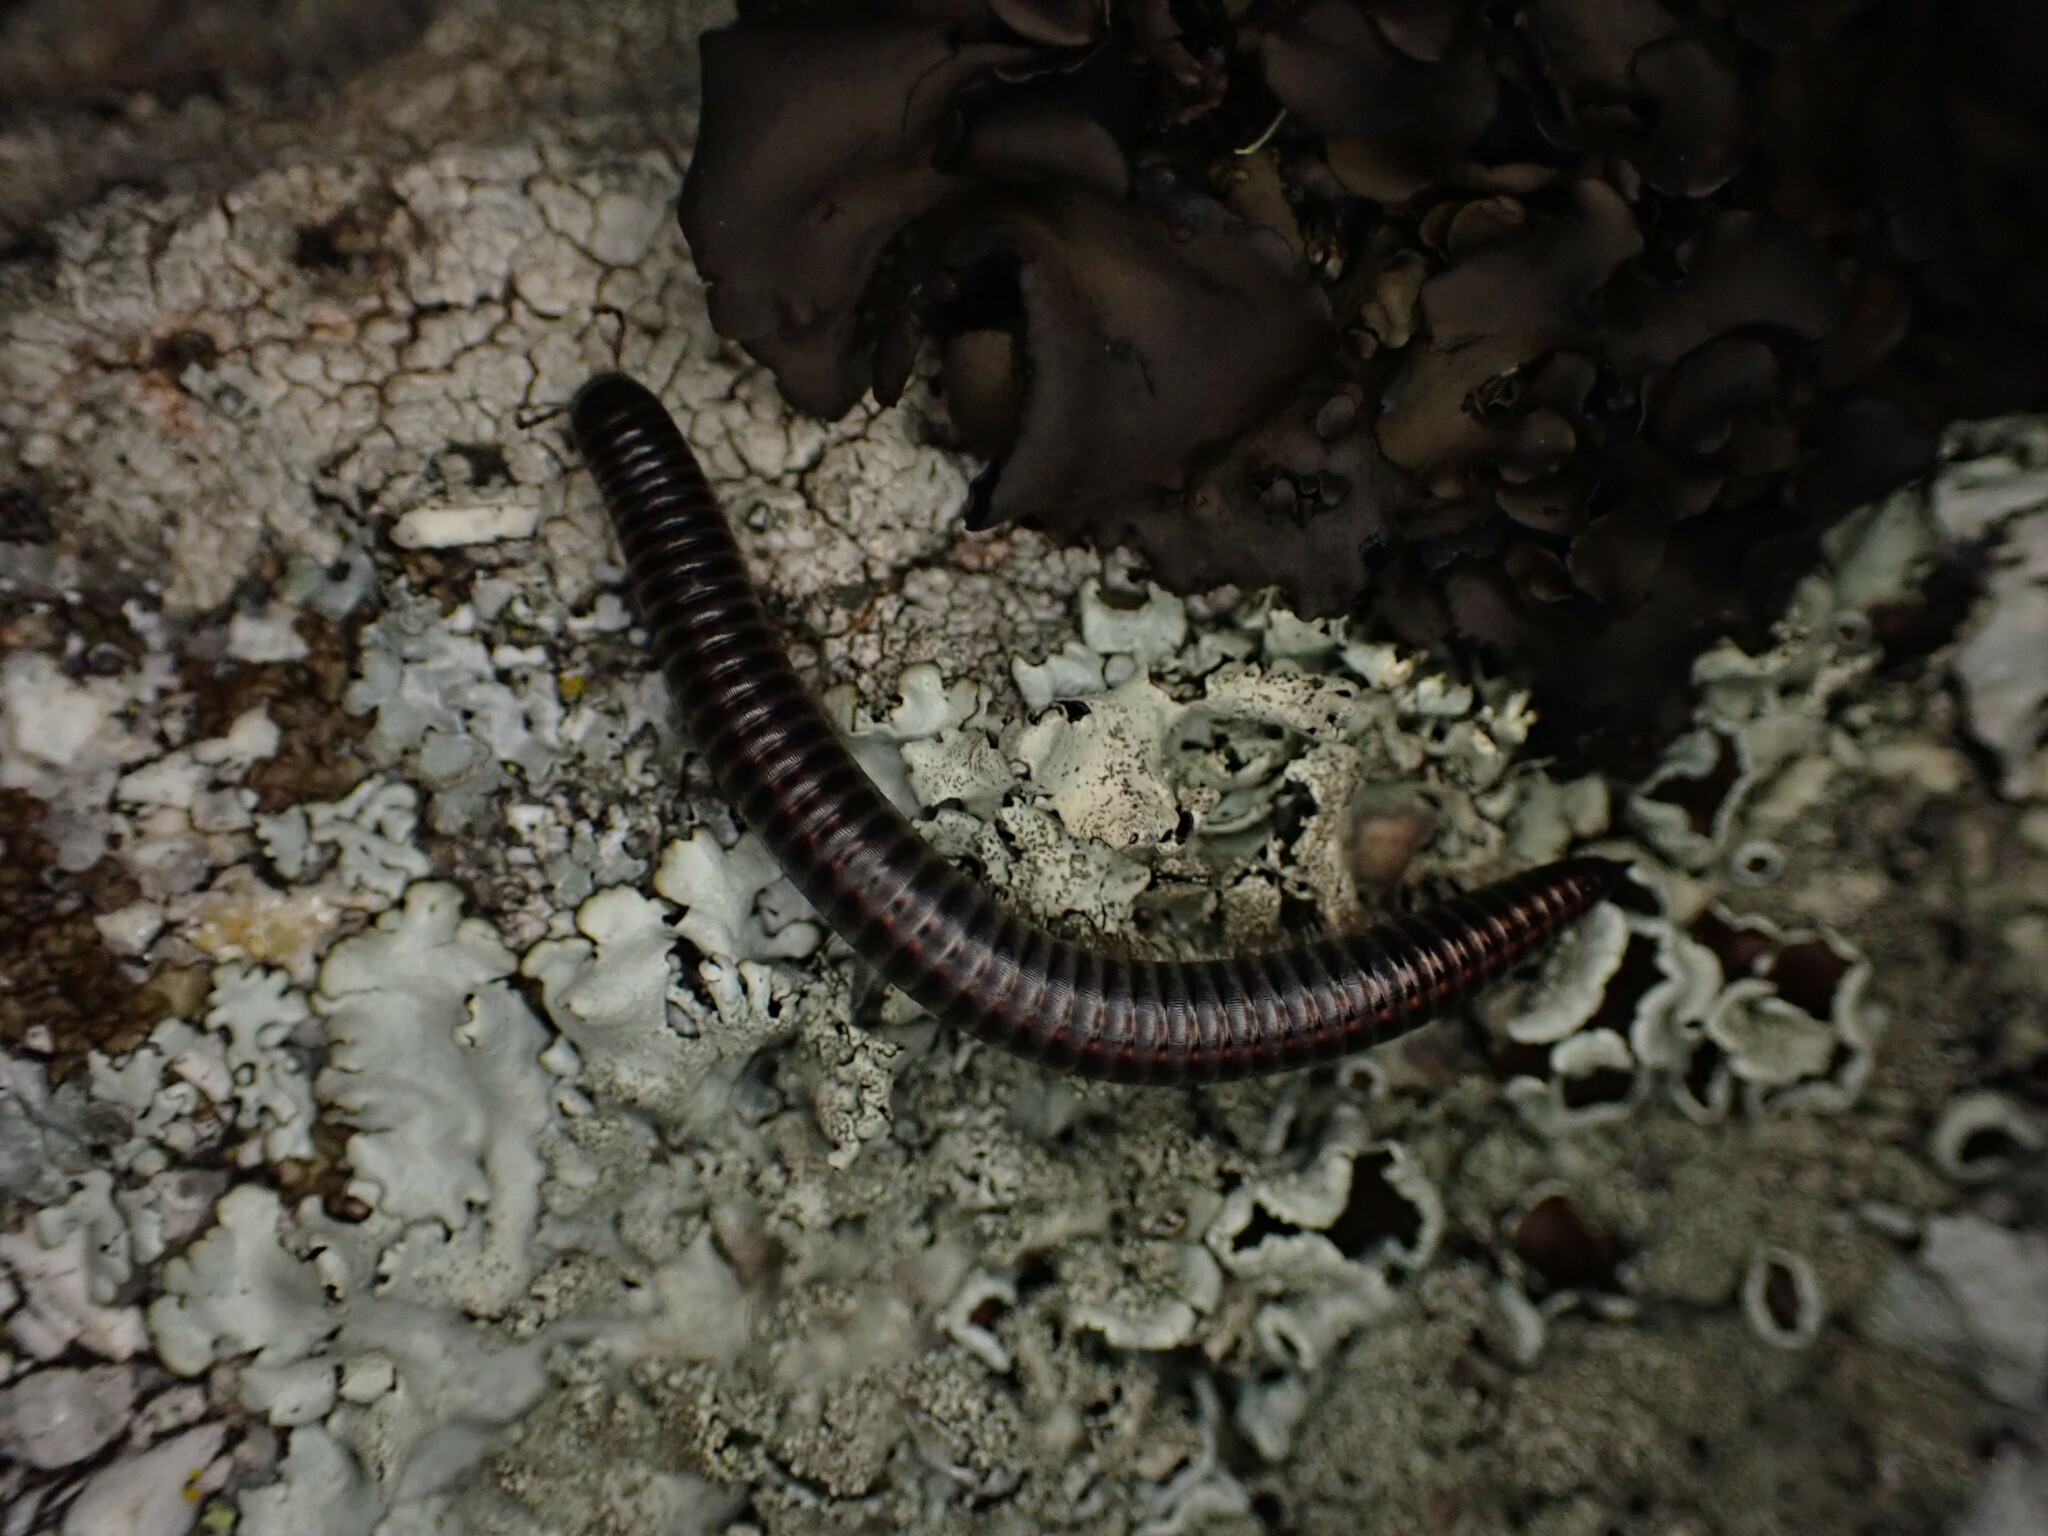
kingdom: Animalia
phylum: Arthropoda
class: Diplopoda
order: Julida
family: Julidae
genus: Ommatoiulus
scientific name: Ommatoiulus
